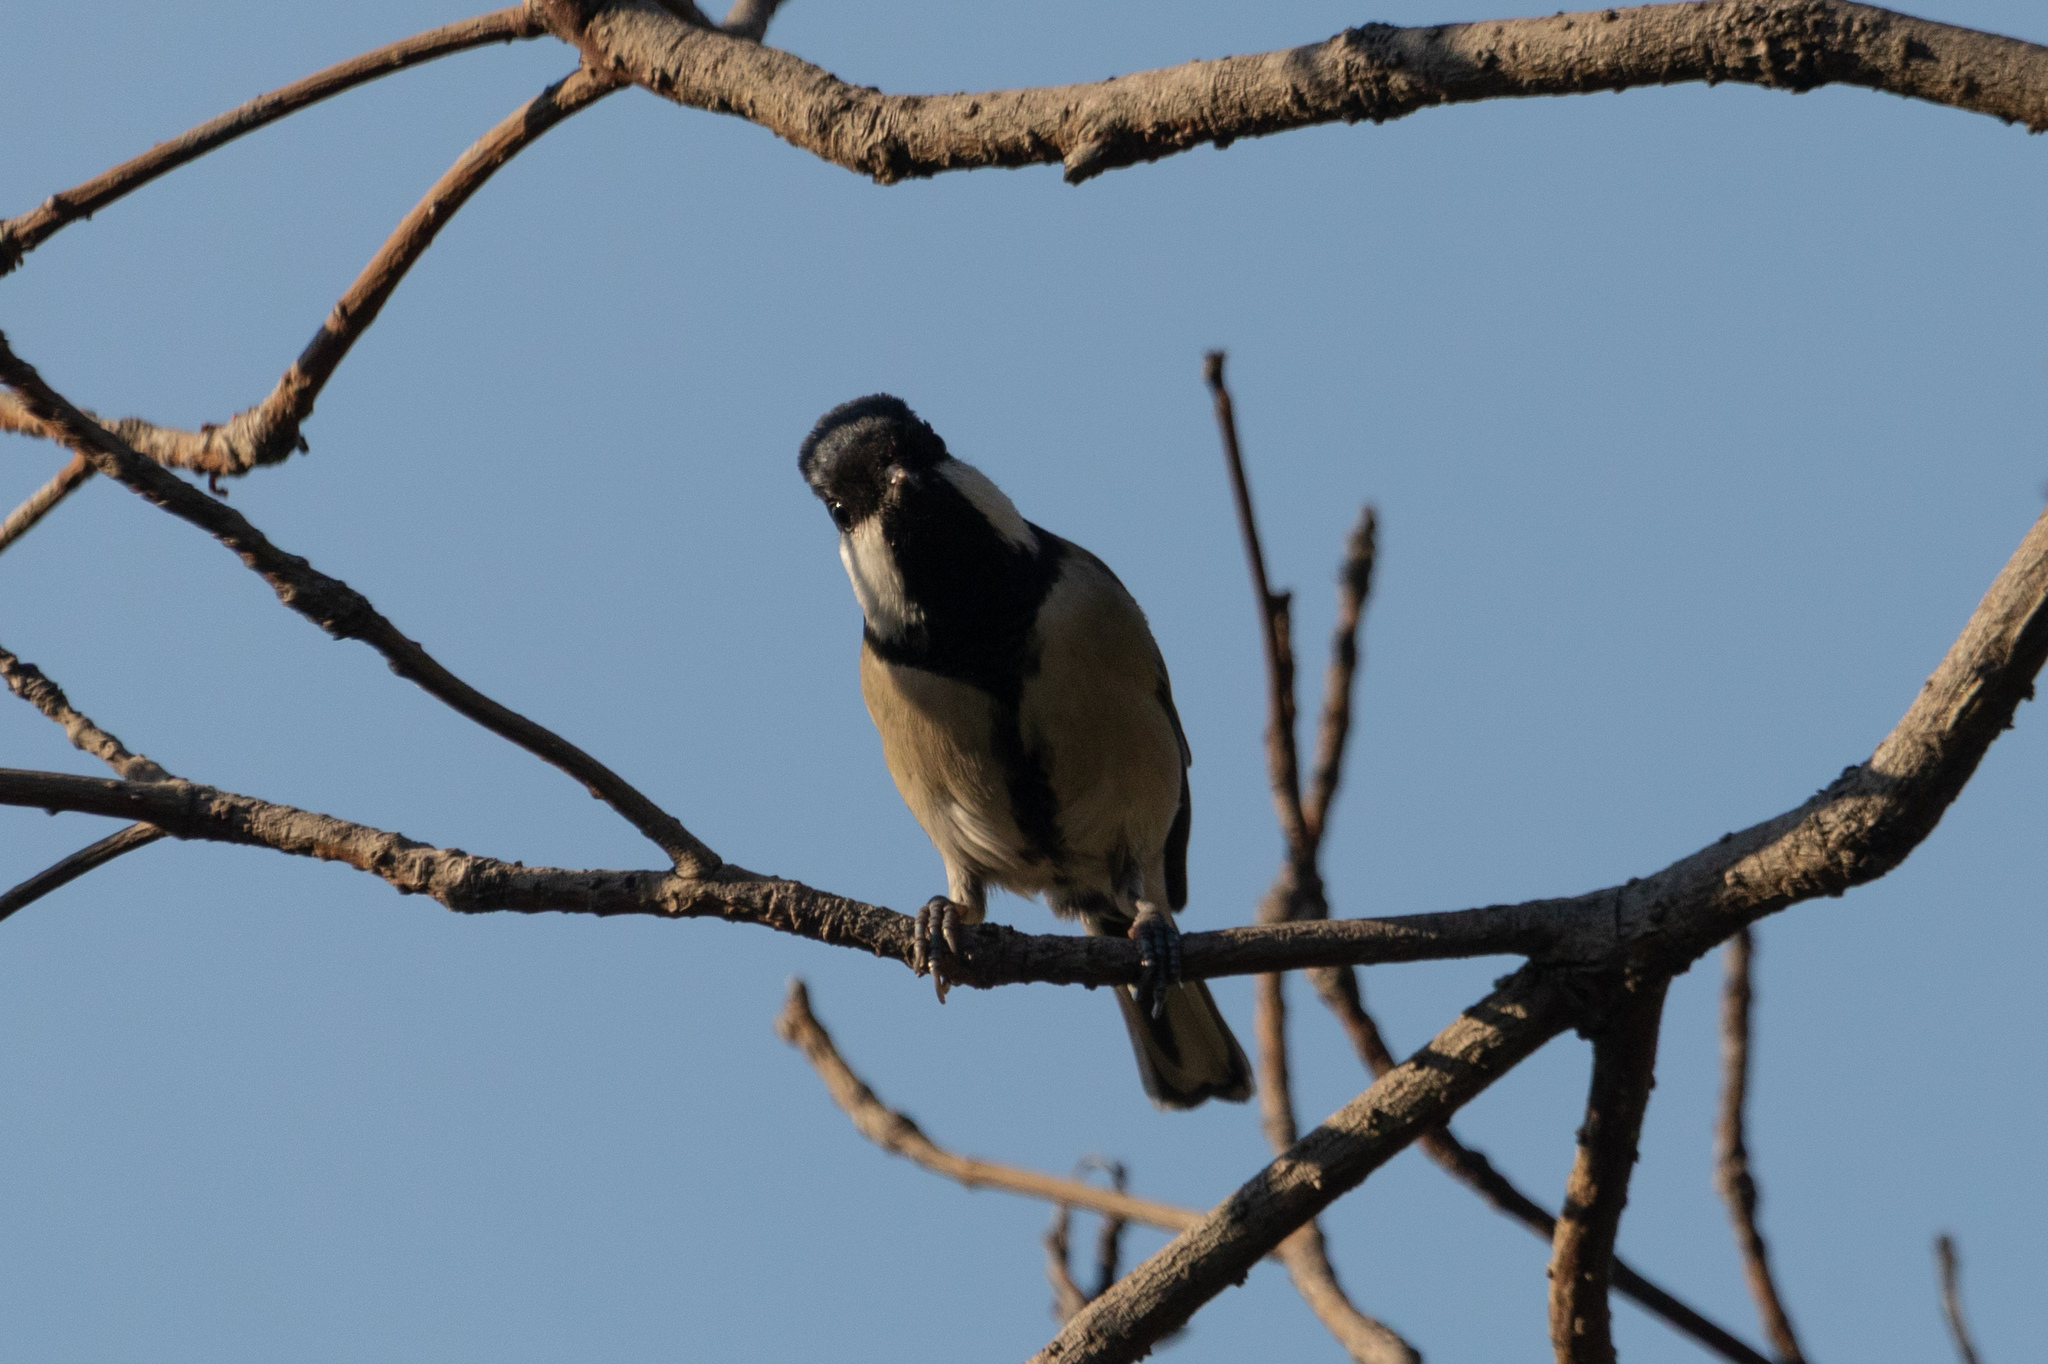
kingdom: Animalia
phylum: Chordata
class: Aves
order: Passeriformes
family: Paridae
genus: Parus
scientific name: Parus minor
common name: Japanese tit
